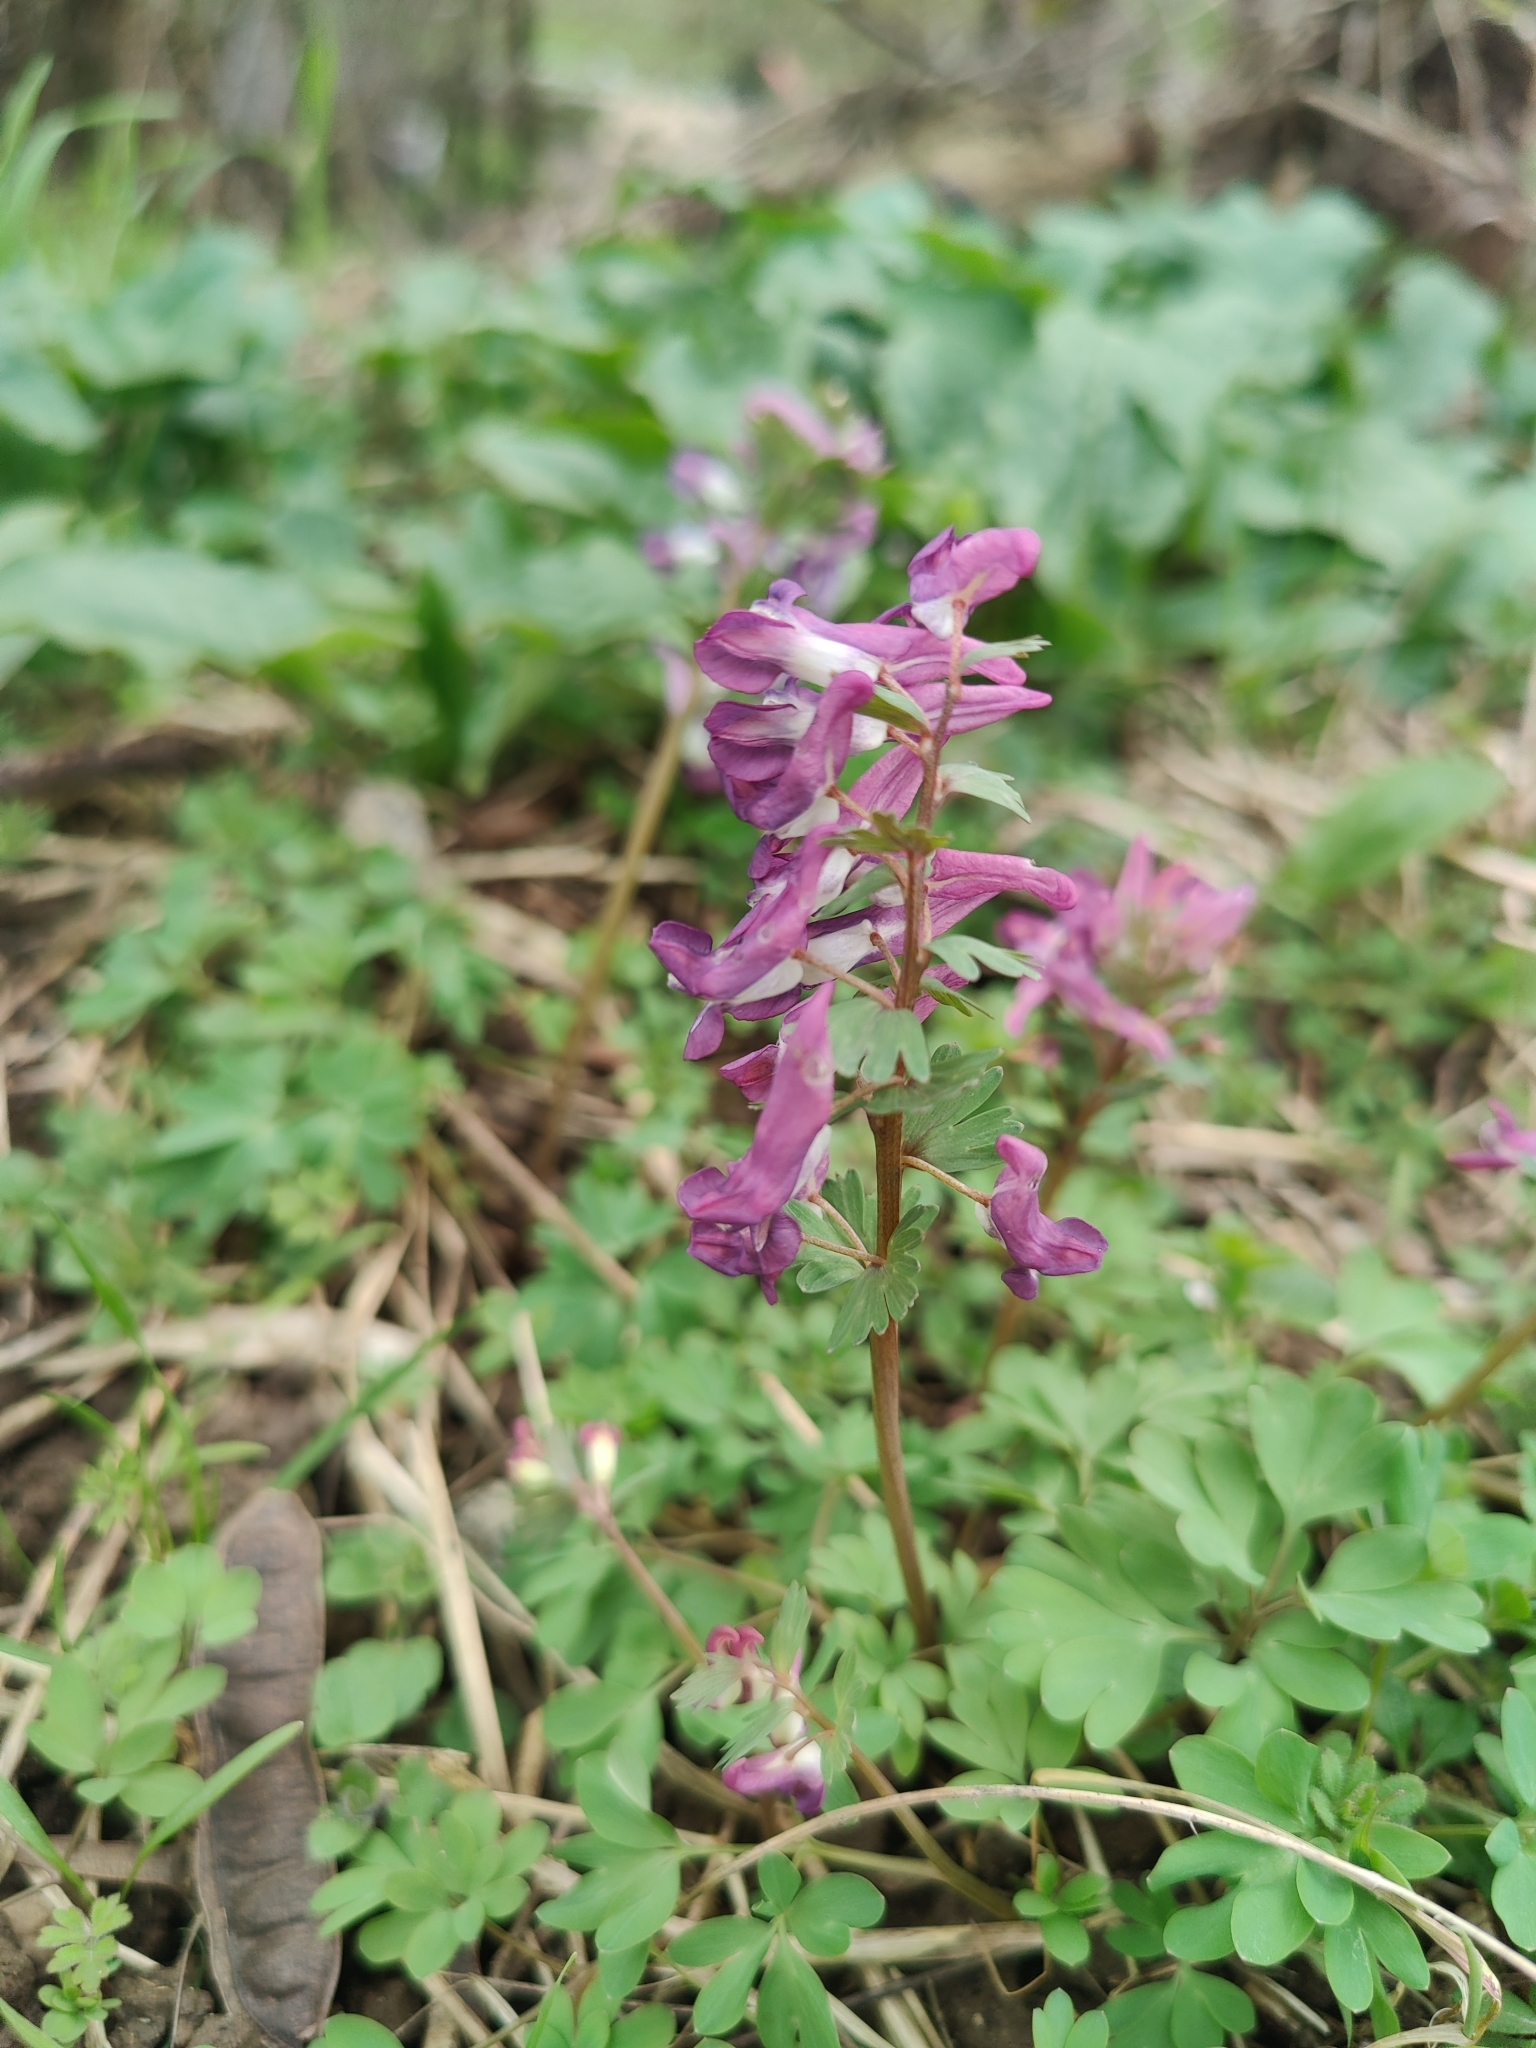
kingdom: Plantae
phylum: Tracheophyta
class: Magnoliopsida
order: Ranunculales
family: Papaveraceae
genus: Corydalis
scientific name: Corydalis solida
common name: Bird-in-a-bush
